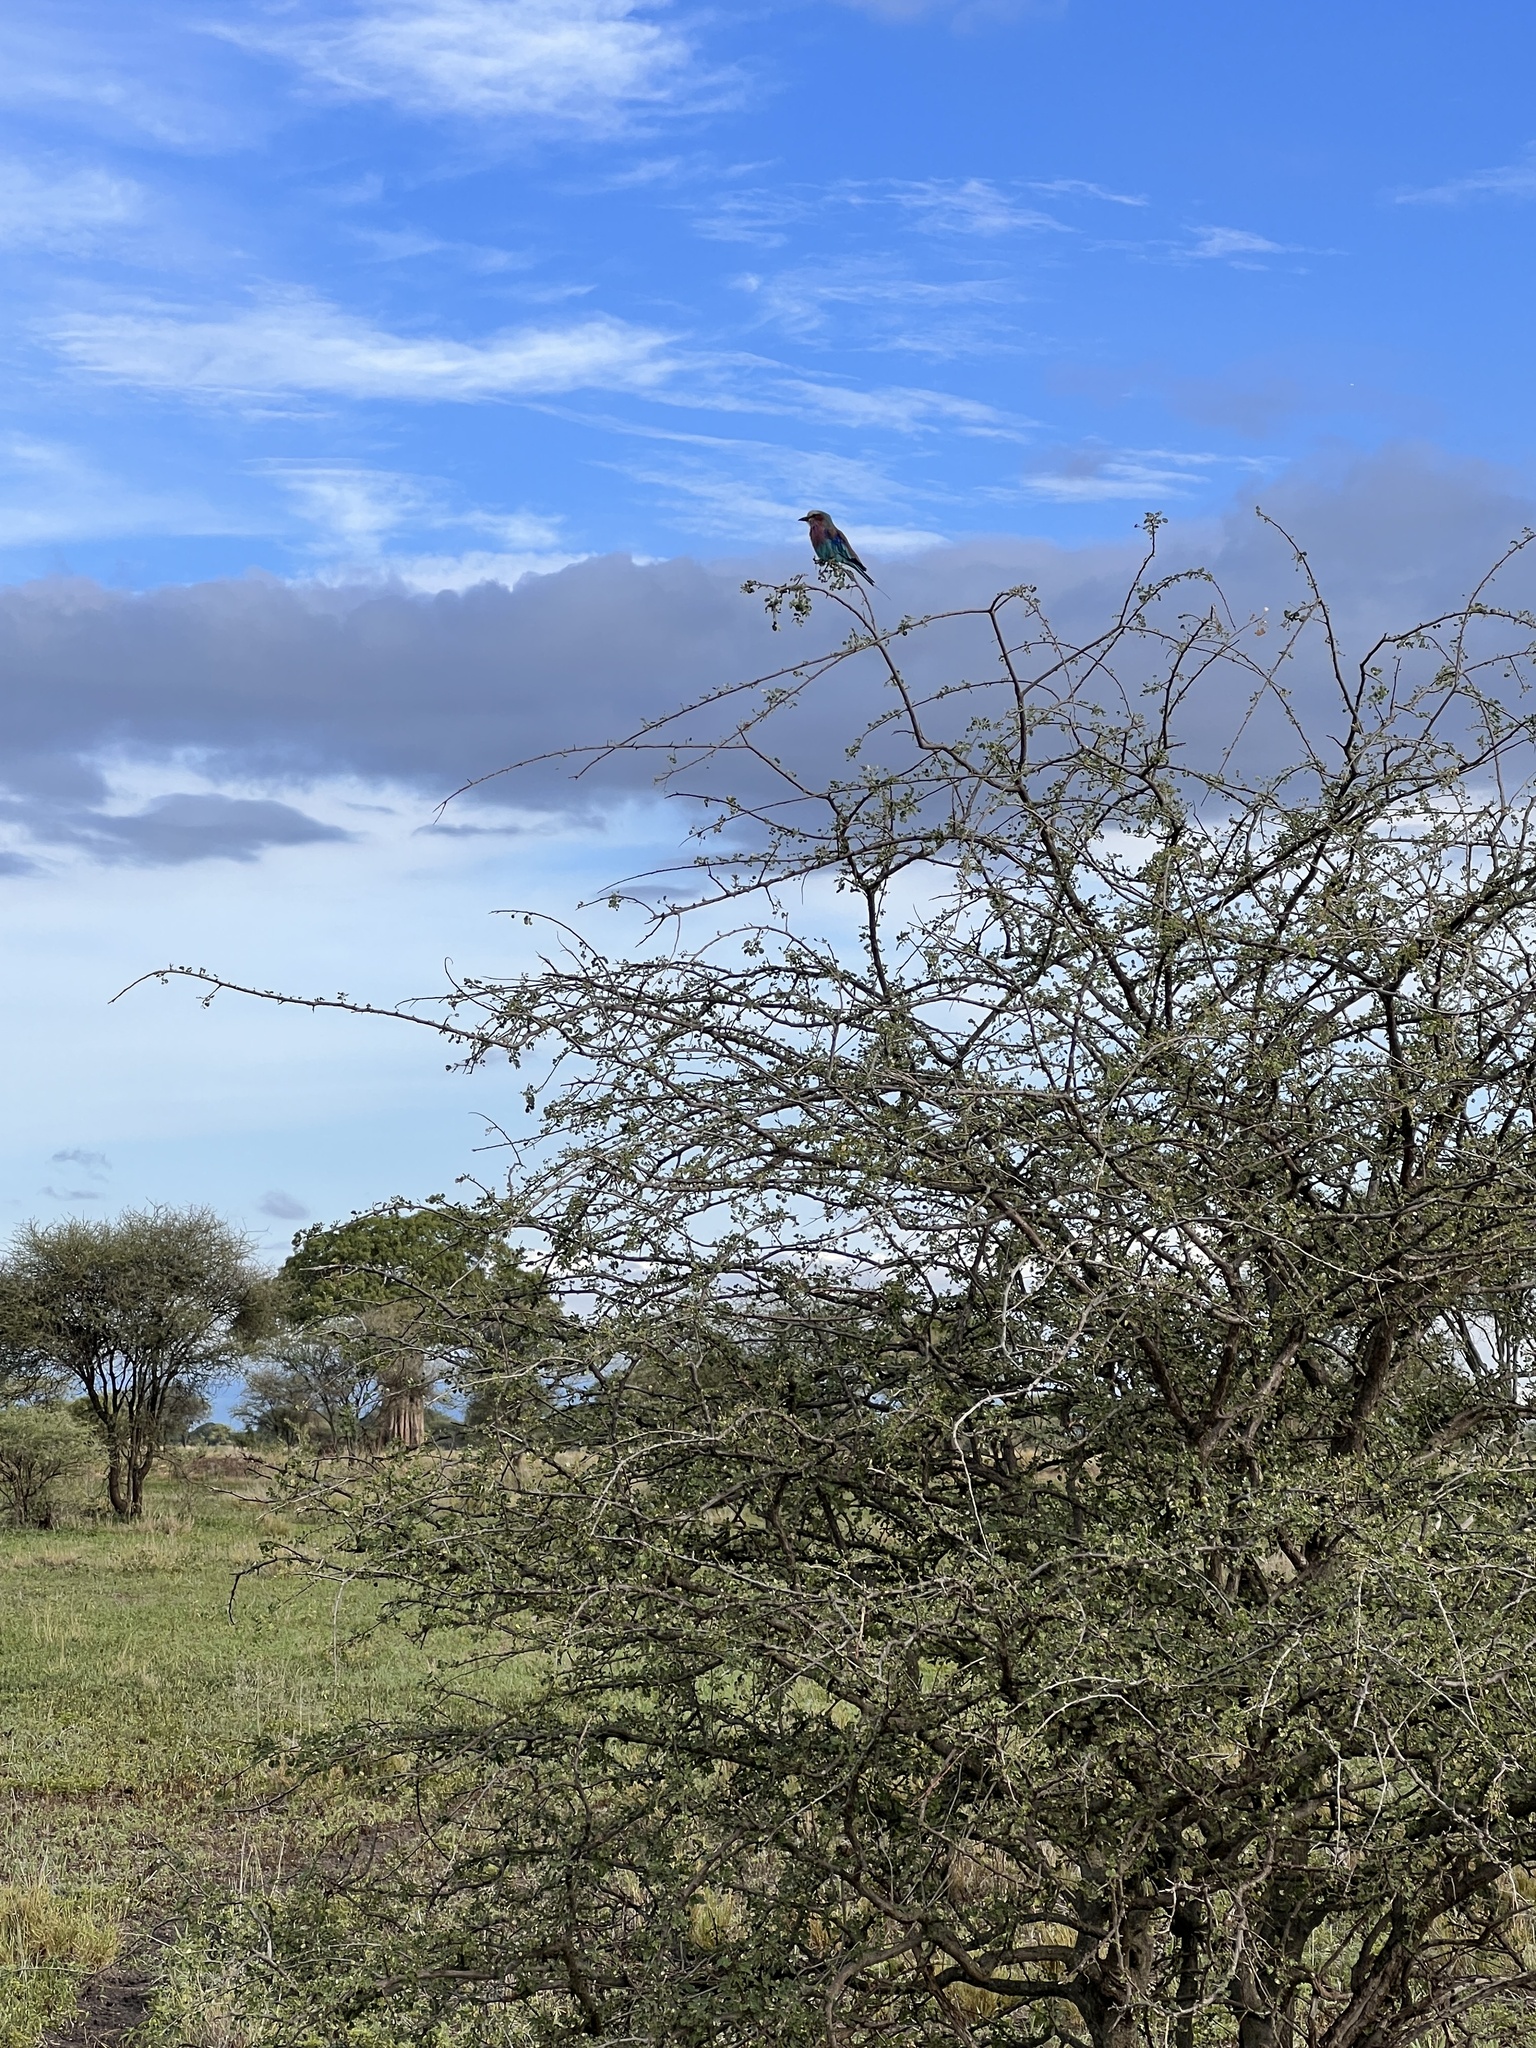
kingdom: Animalia
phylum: Chordata
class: Aves
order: Coraciiformes
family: Coraciidae
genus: Coracias
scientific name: Coracias caudatus
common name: Lilac-breasted roller
